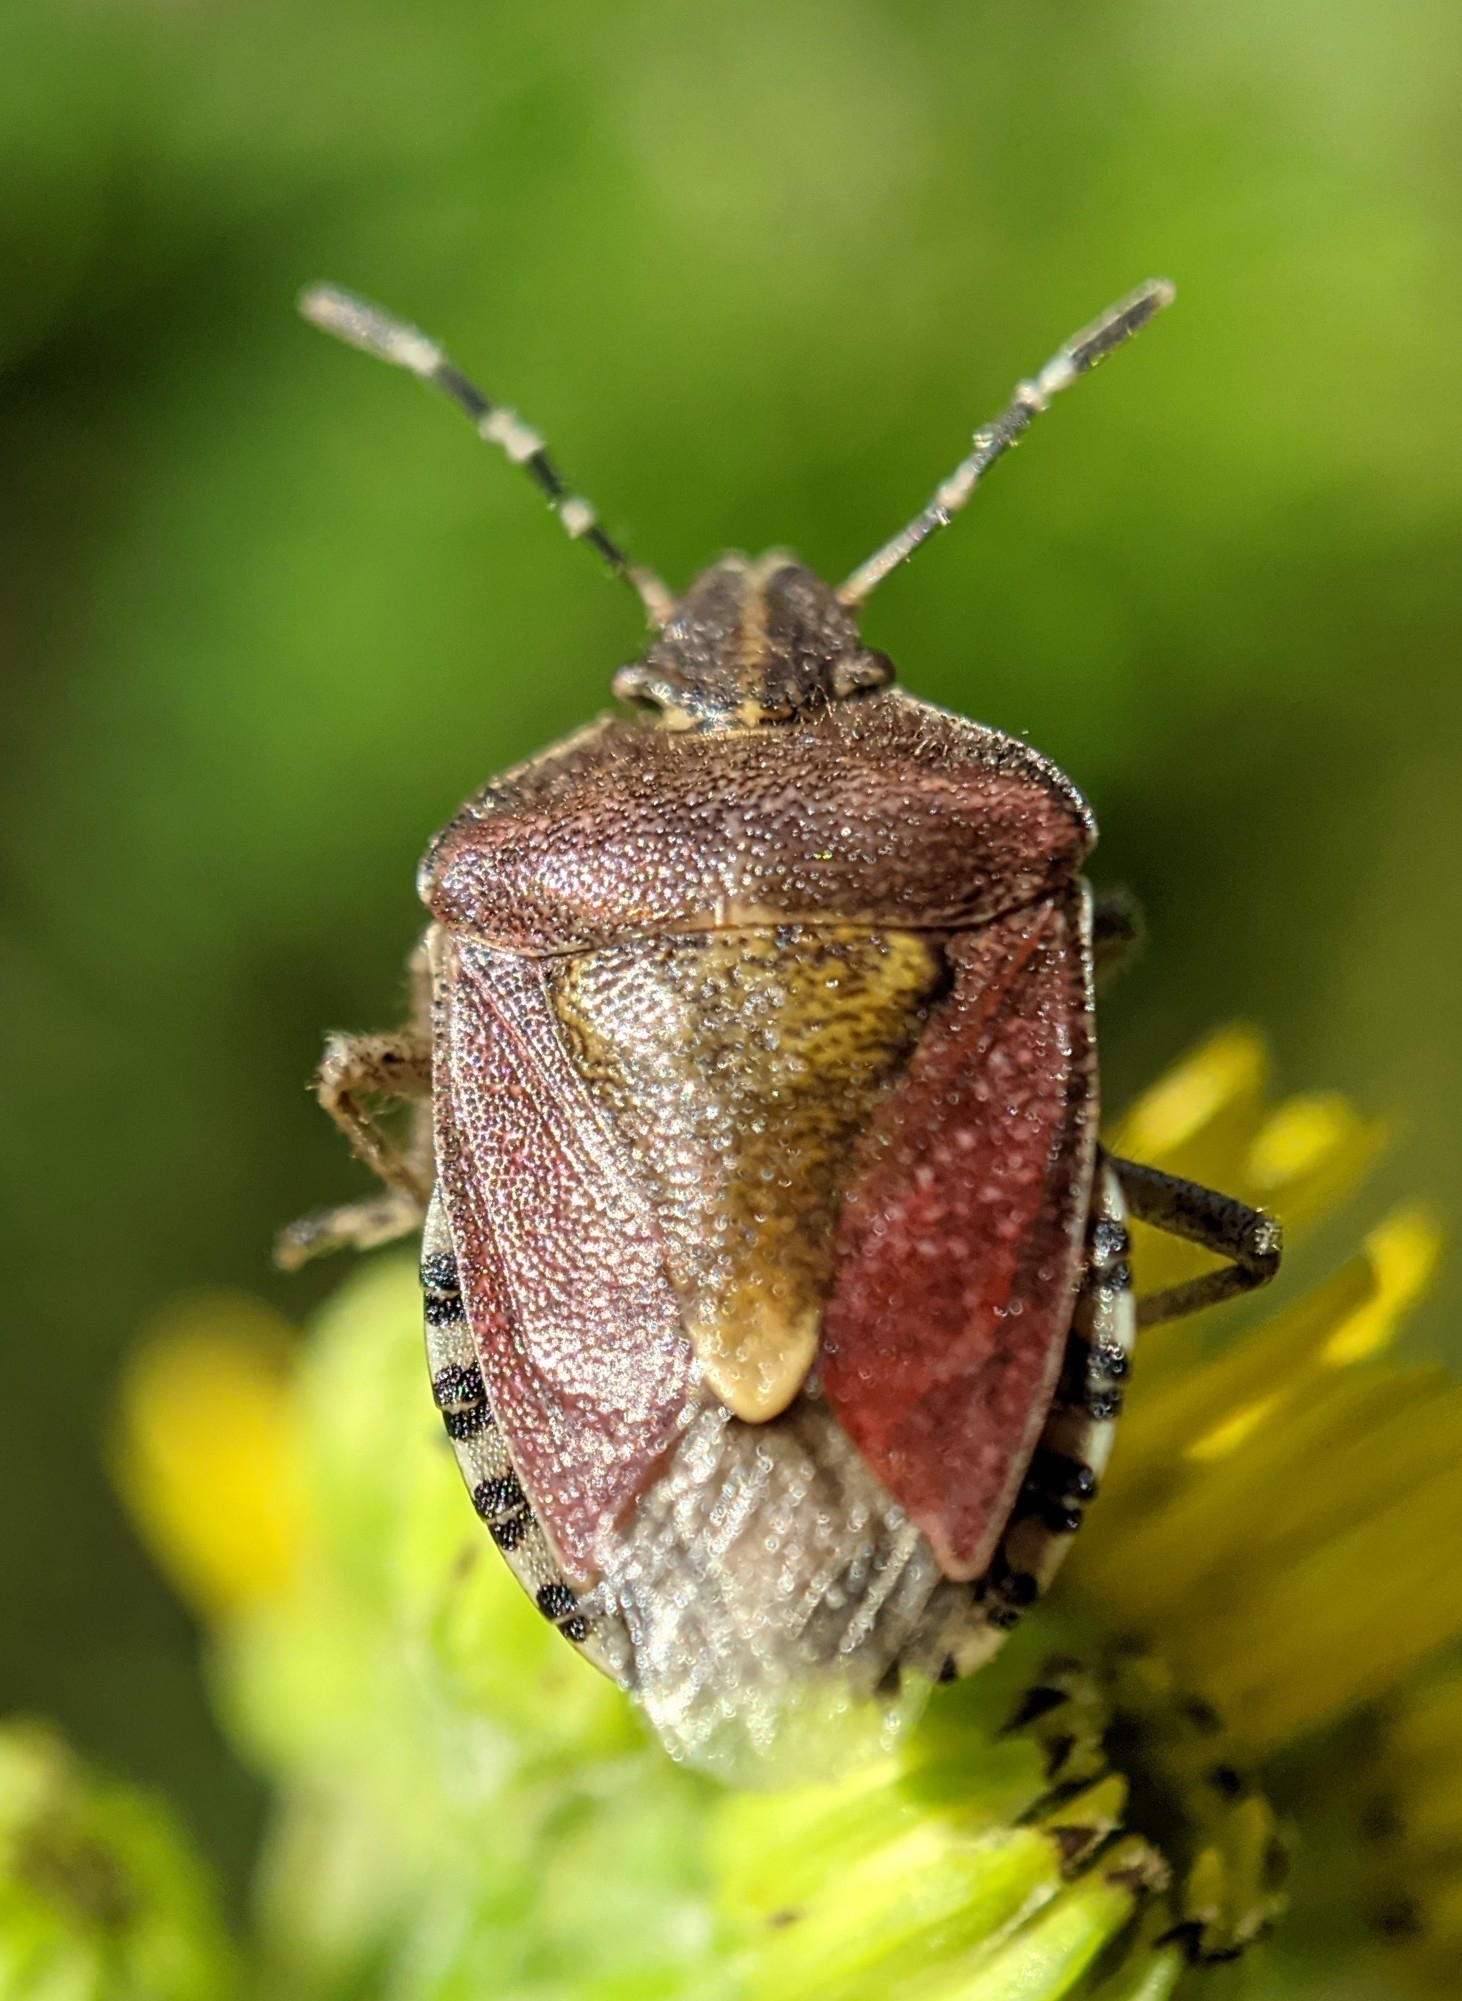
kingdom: Animalia
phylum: Arthropoda
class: Insecta
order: Hemiptera
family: Pentatomidae
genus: Dolycoris
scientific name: Dolycoris baccarum
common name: Sloe bug
